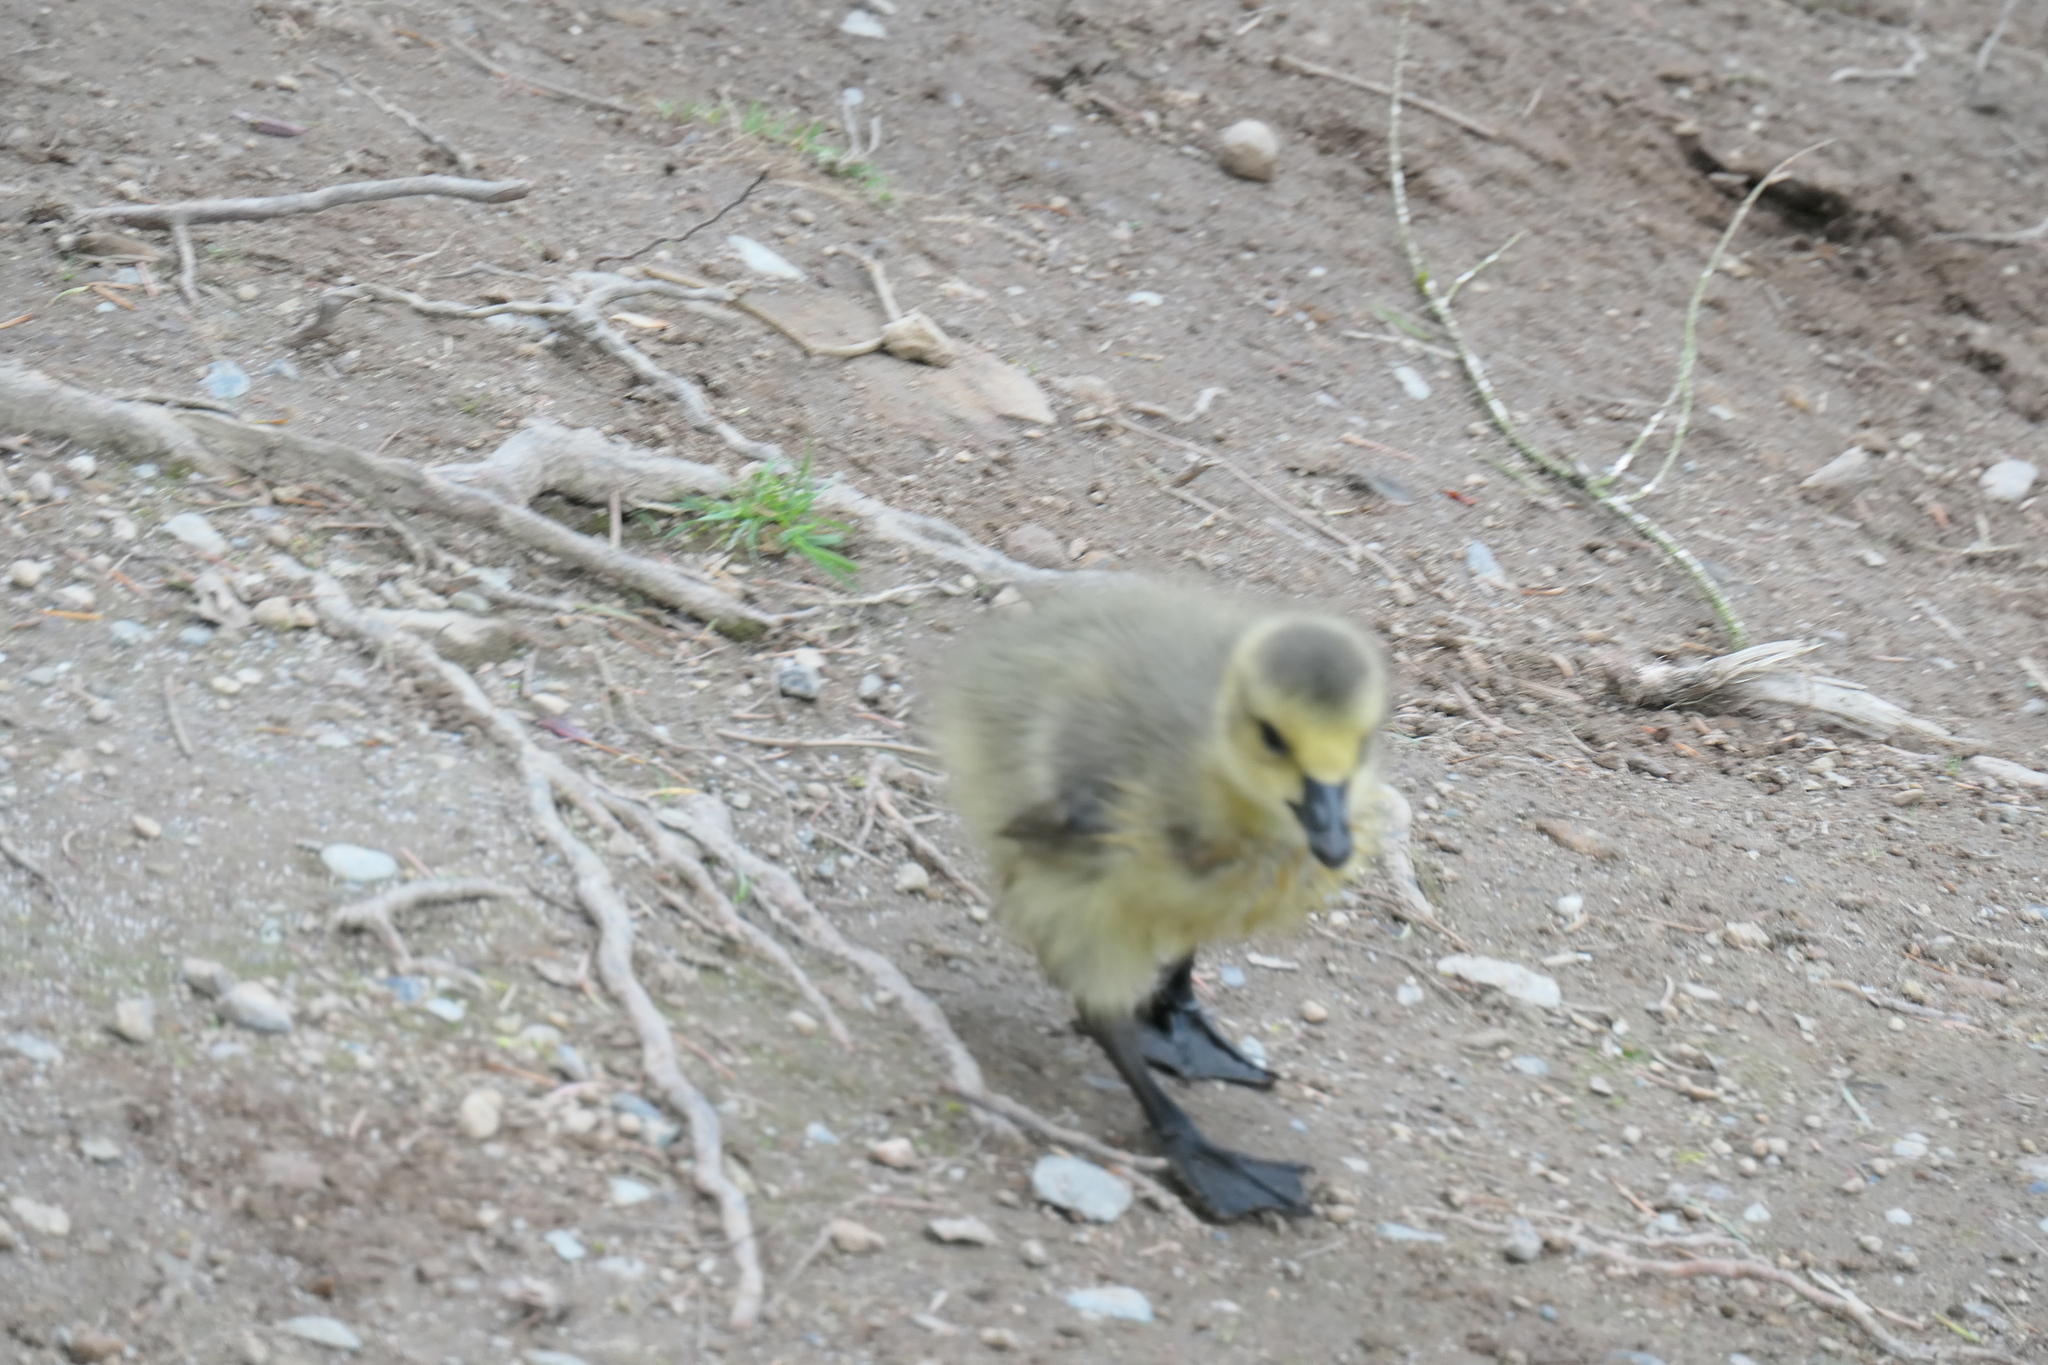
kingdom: Animalia
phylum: Chordata
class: Aves
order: Anseriformes
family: Anatidae
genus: Branta
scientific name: Branta canadensis
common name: Canada goose
